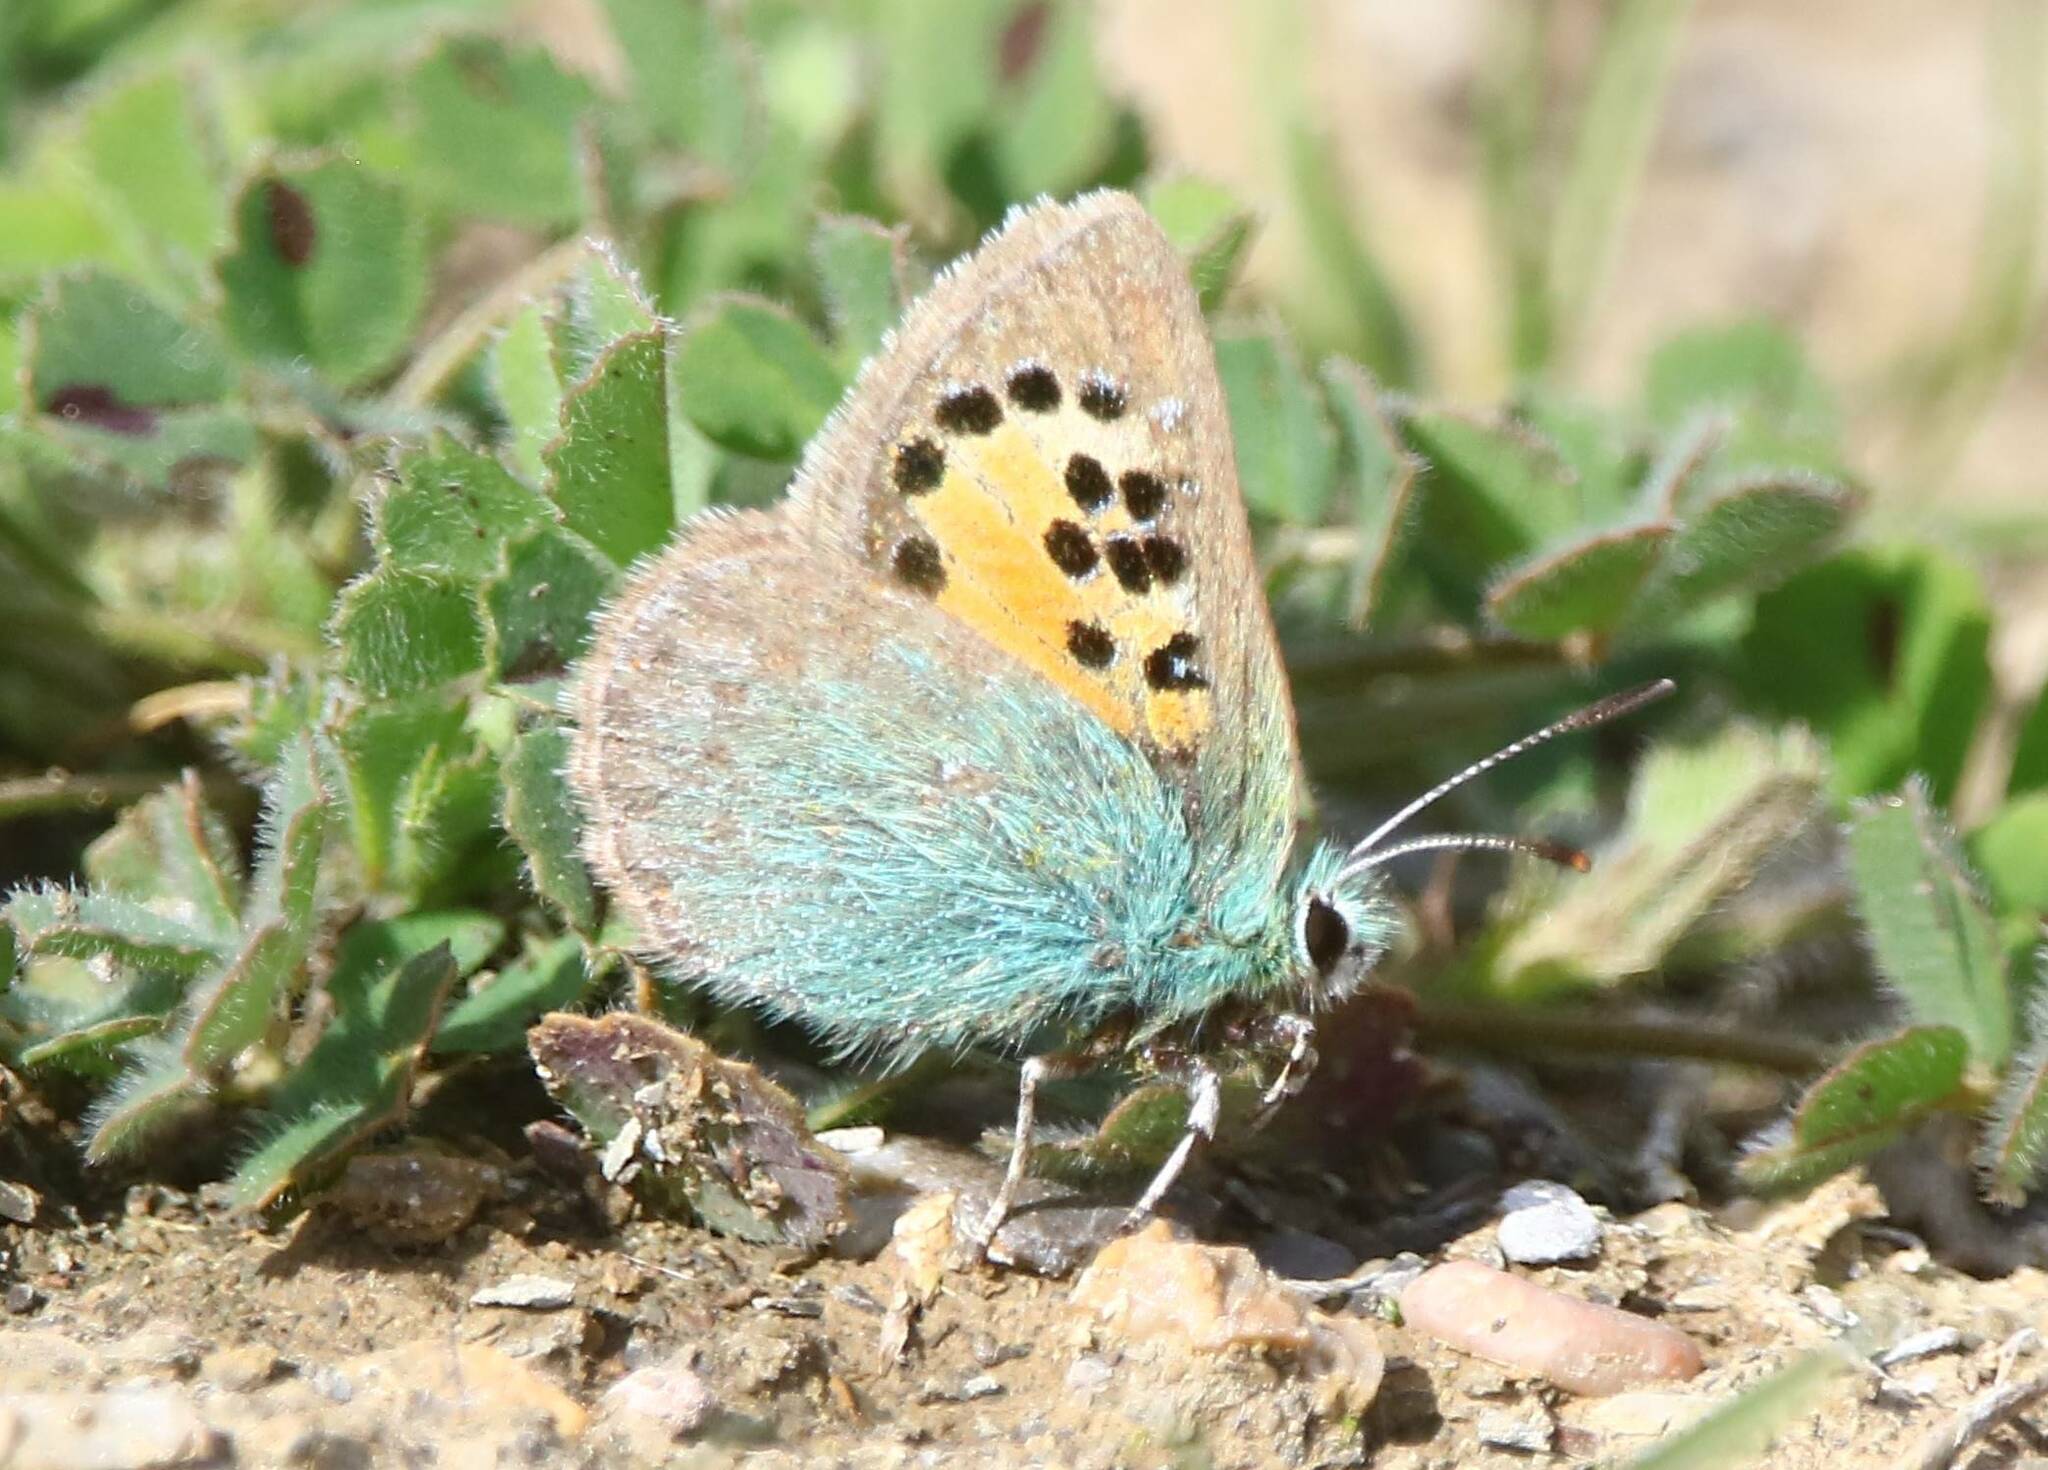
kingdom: Animalia
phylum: Arthropoda
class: Insecta
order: Lepidoptera
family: Lycaenidae
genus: Tomares
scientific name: Tomares ballus
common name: Provence hairstreak
